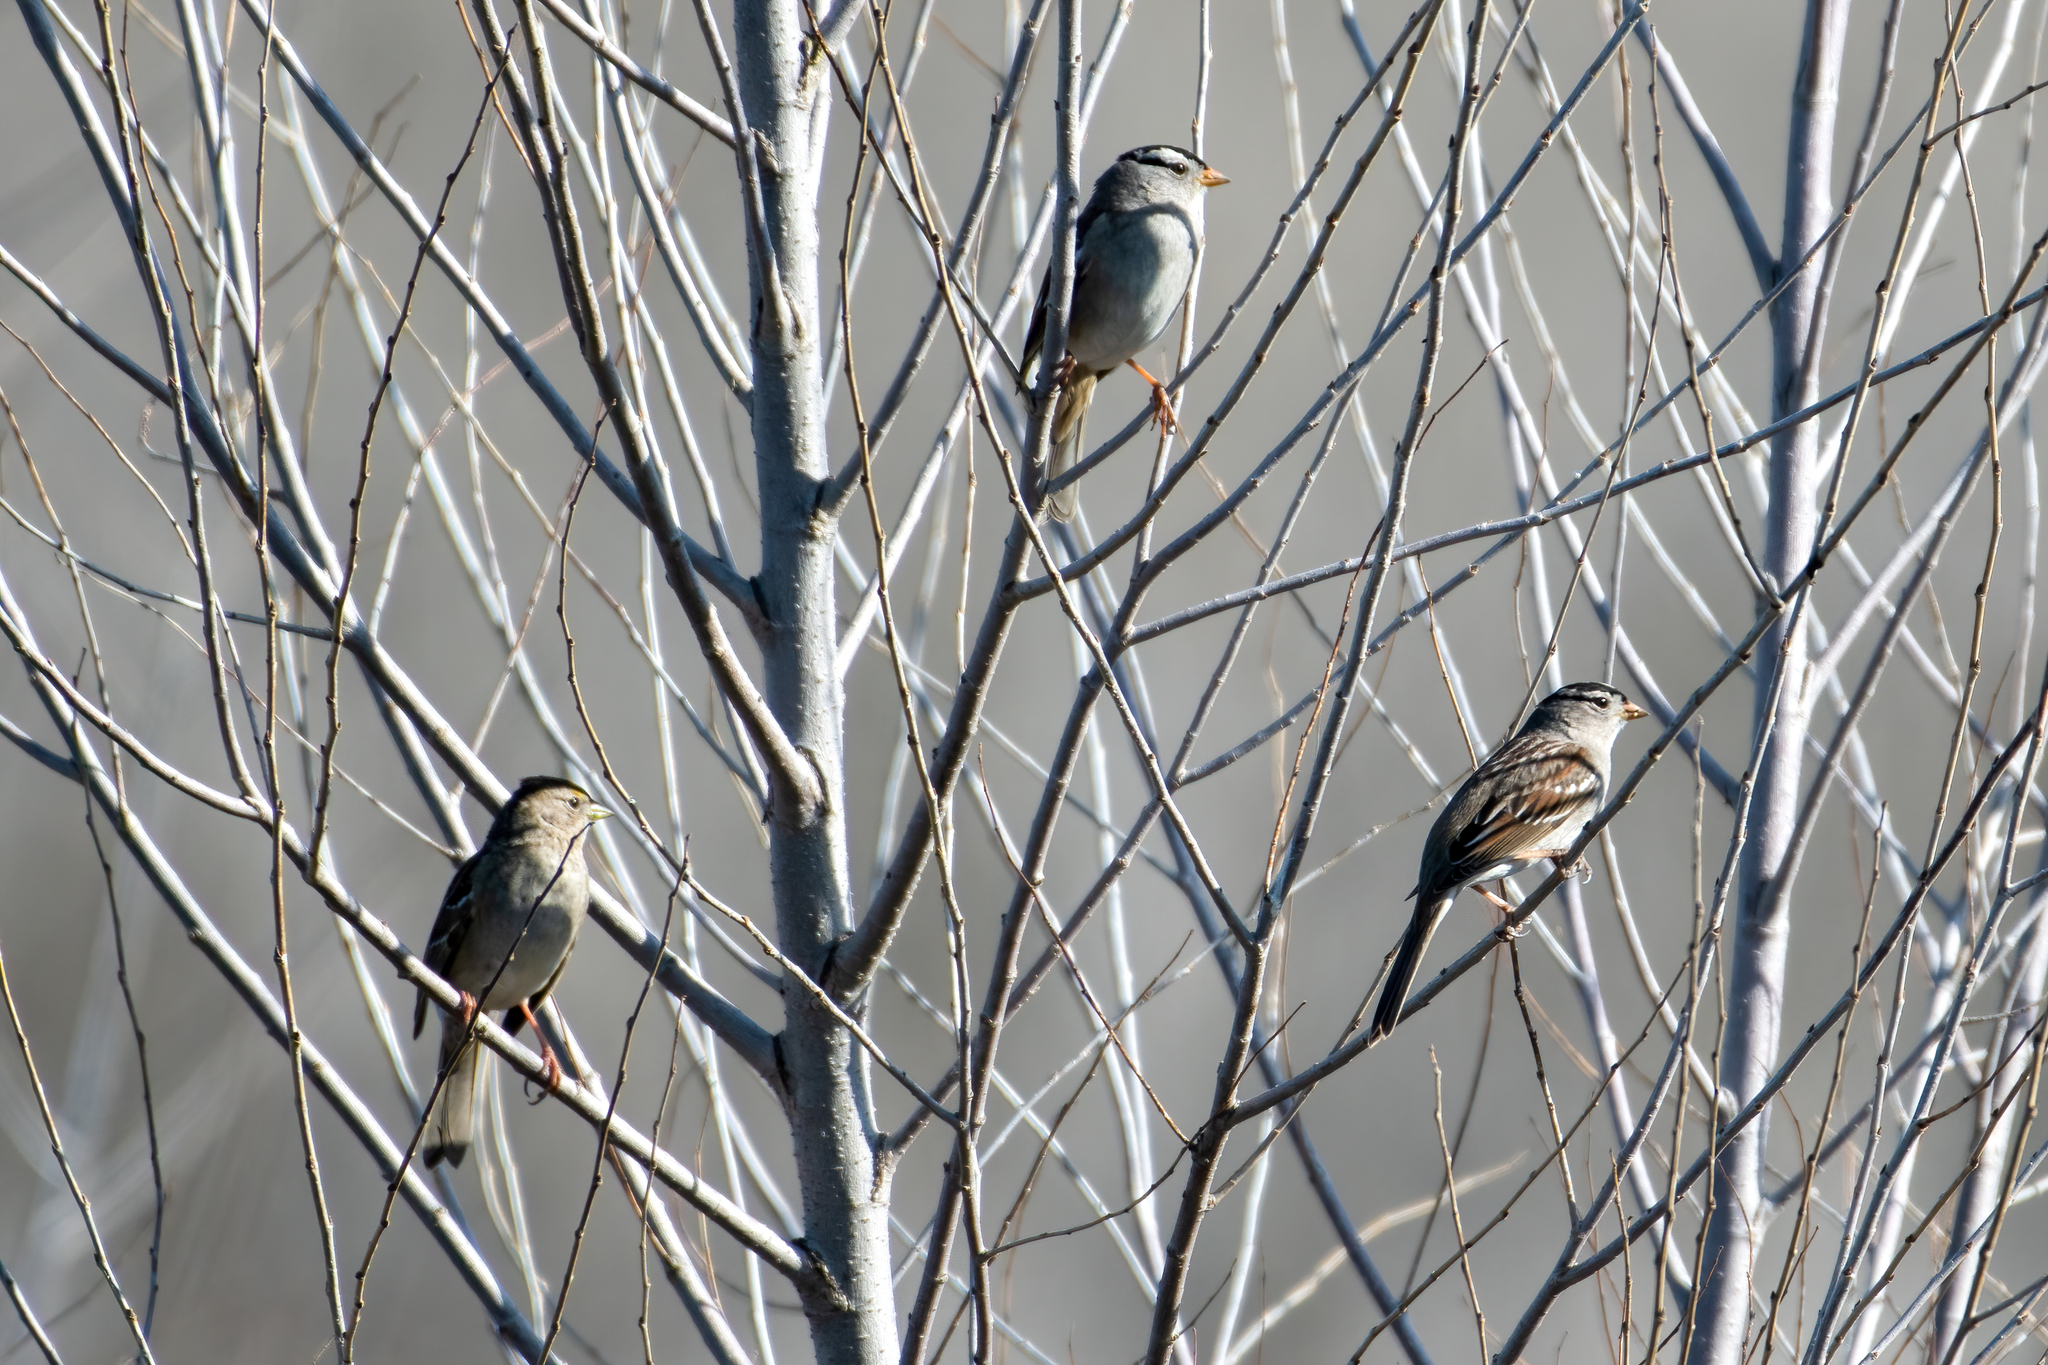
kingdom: Animalia
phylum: Chordata
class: Aves
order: Passeriformes
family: Passerellidae
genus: Zonotrichia
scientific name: Zonotrichia leucophrys
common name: White-crowned sparrow
